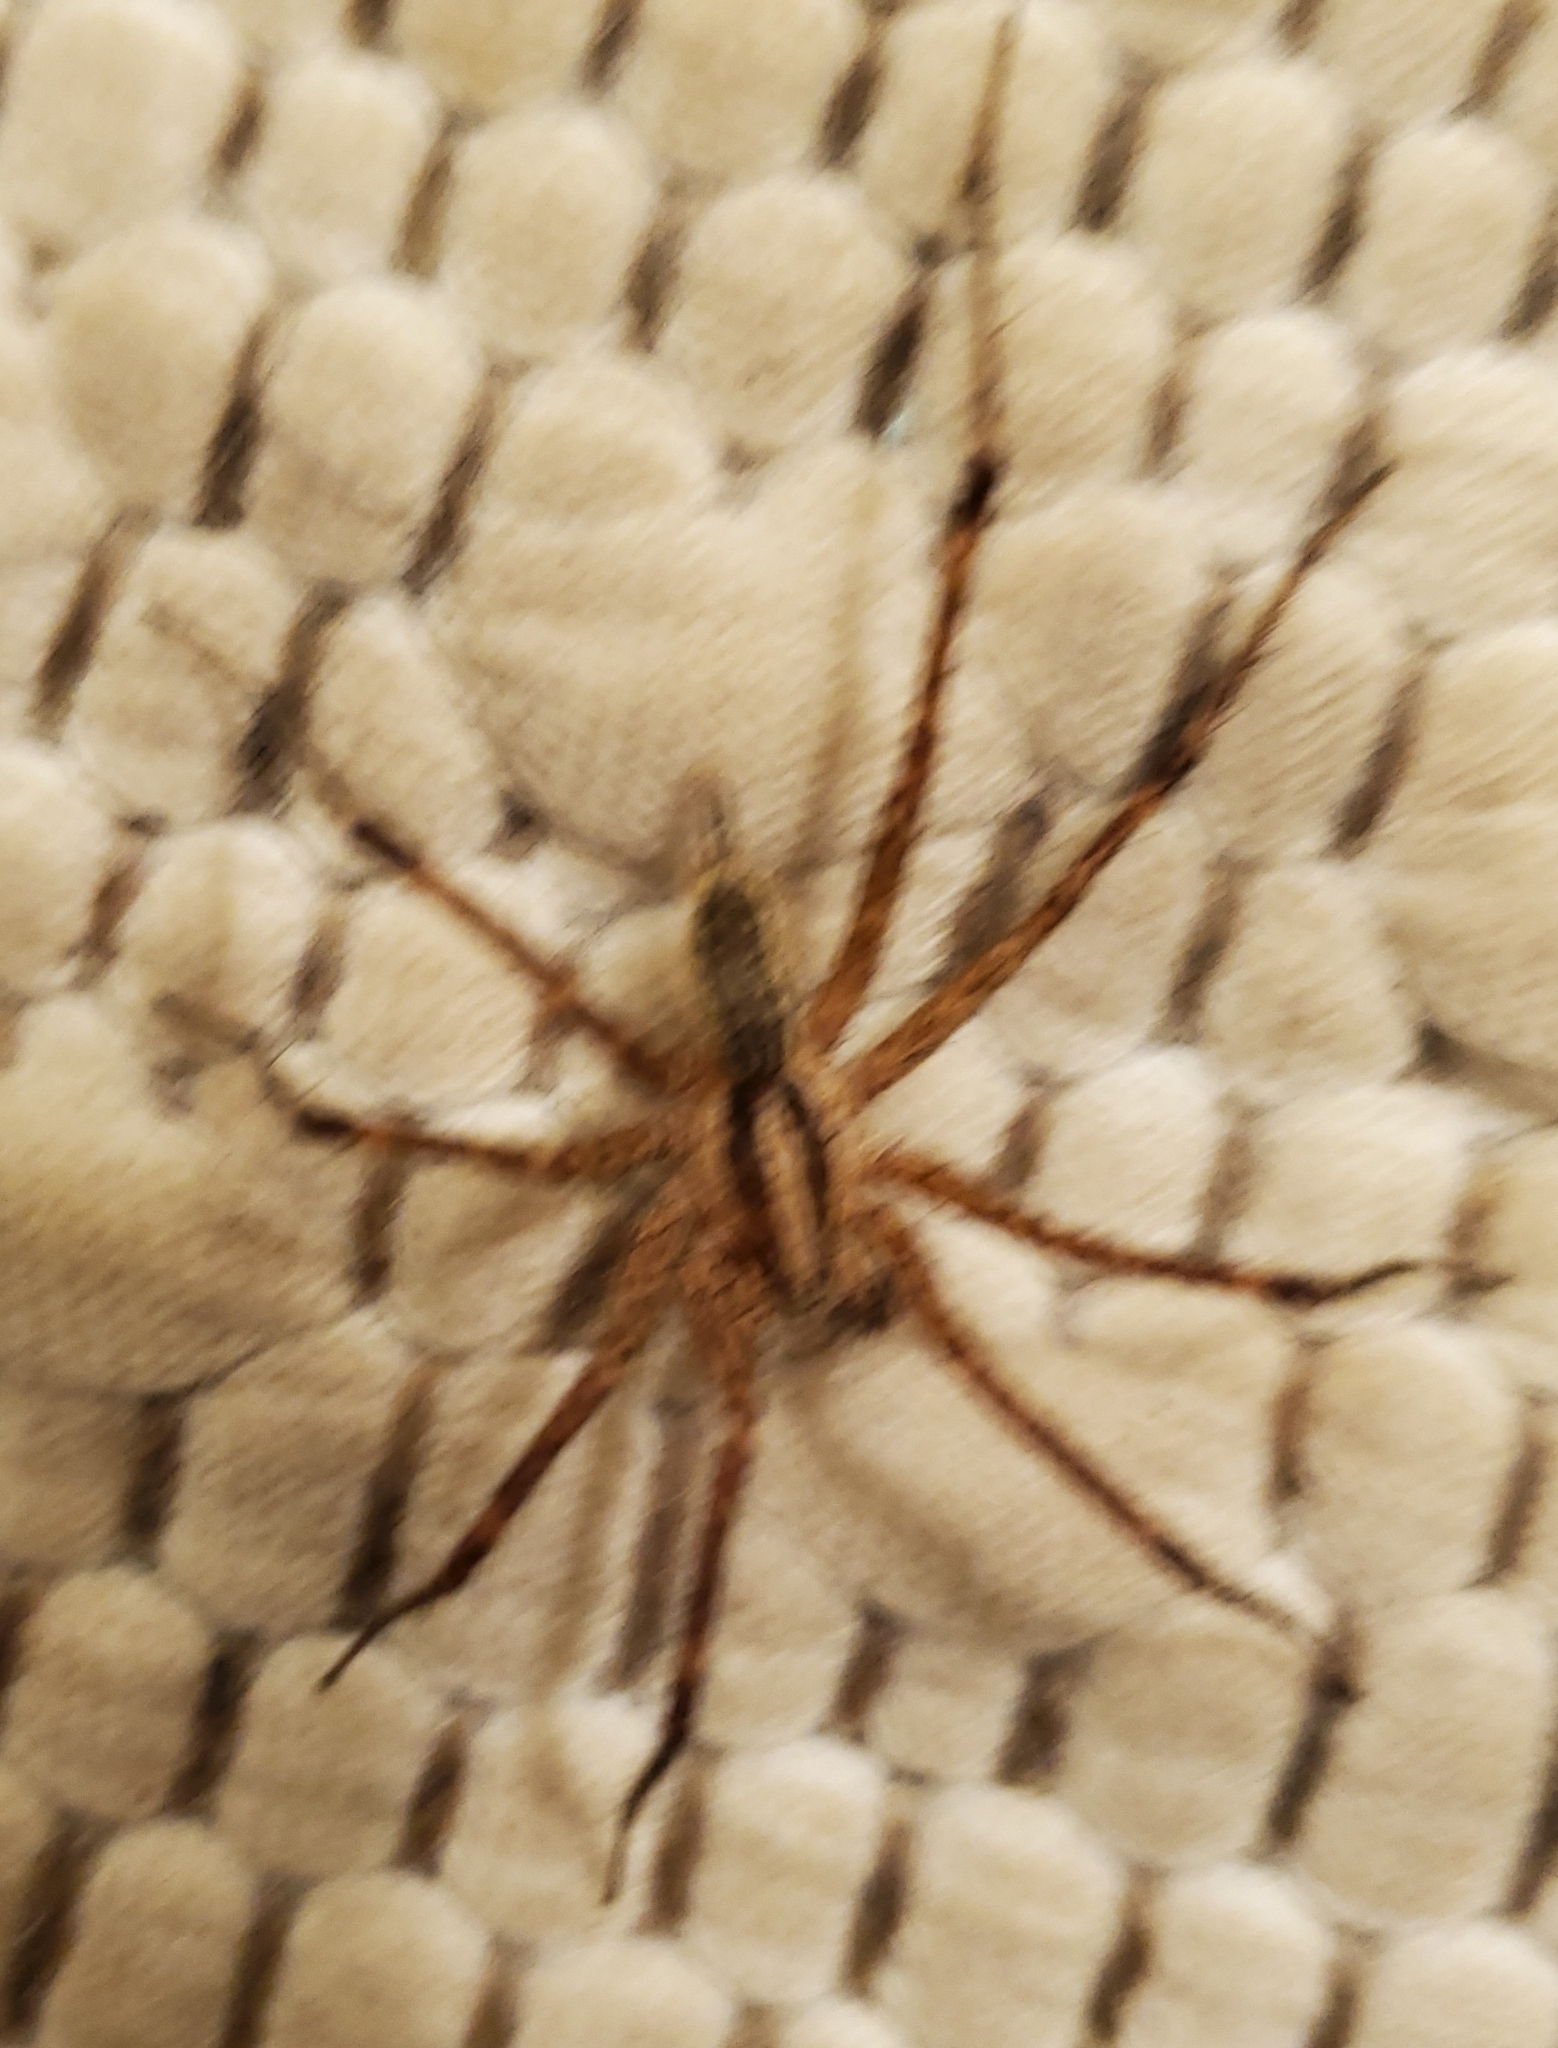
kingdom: Animalia
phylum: Arthropoda
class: Arachnida
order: Araneae
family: Agelenidae
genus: Agelenopsis
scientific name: Agelenopsis
